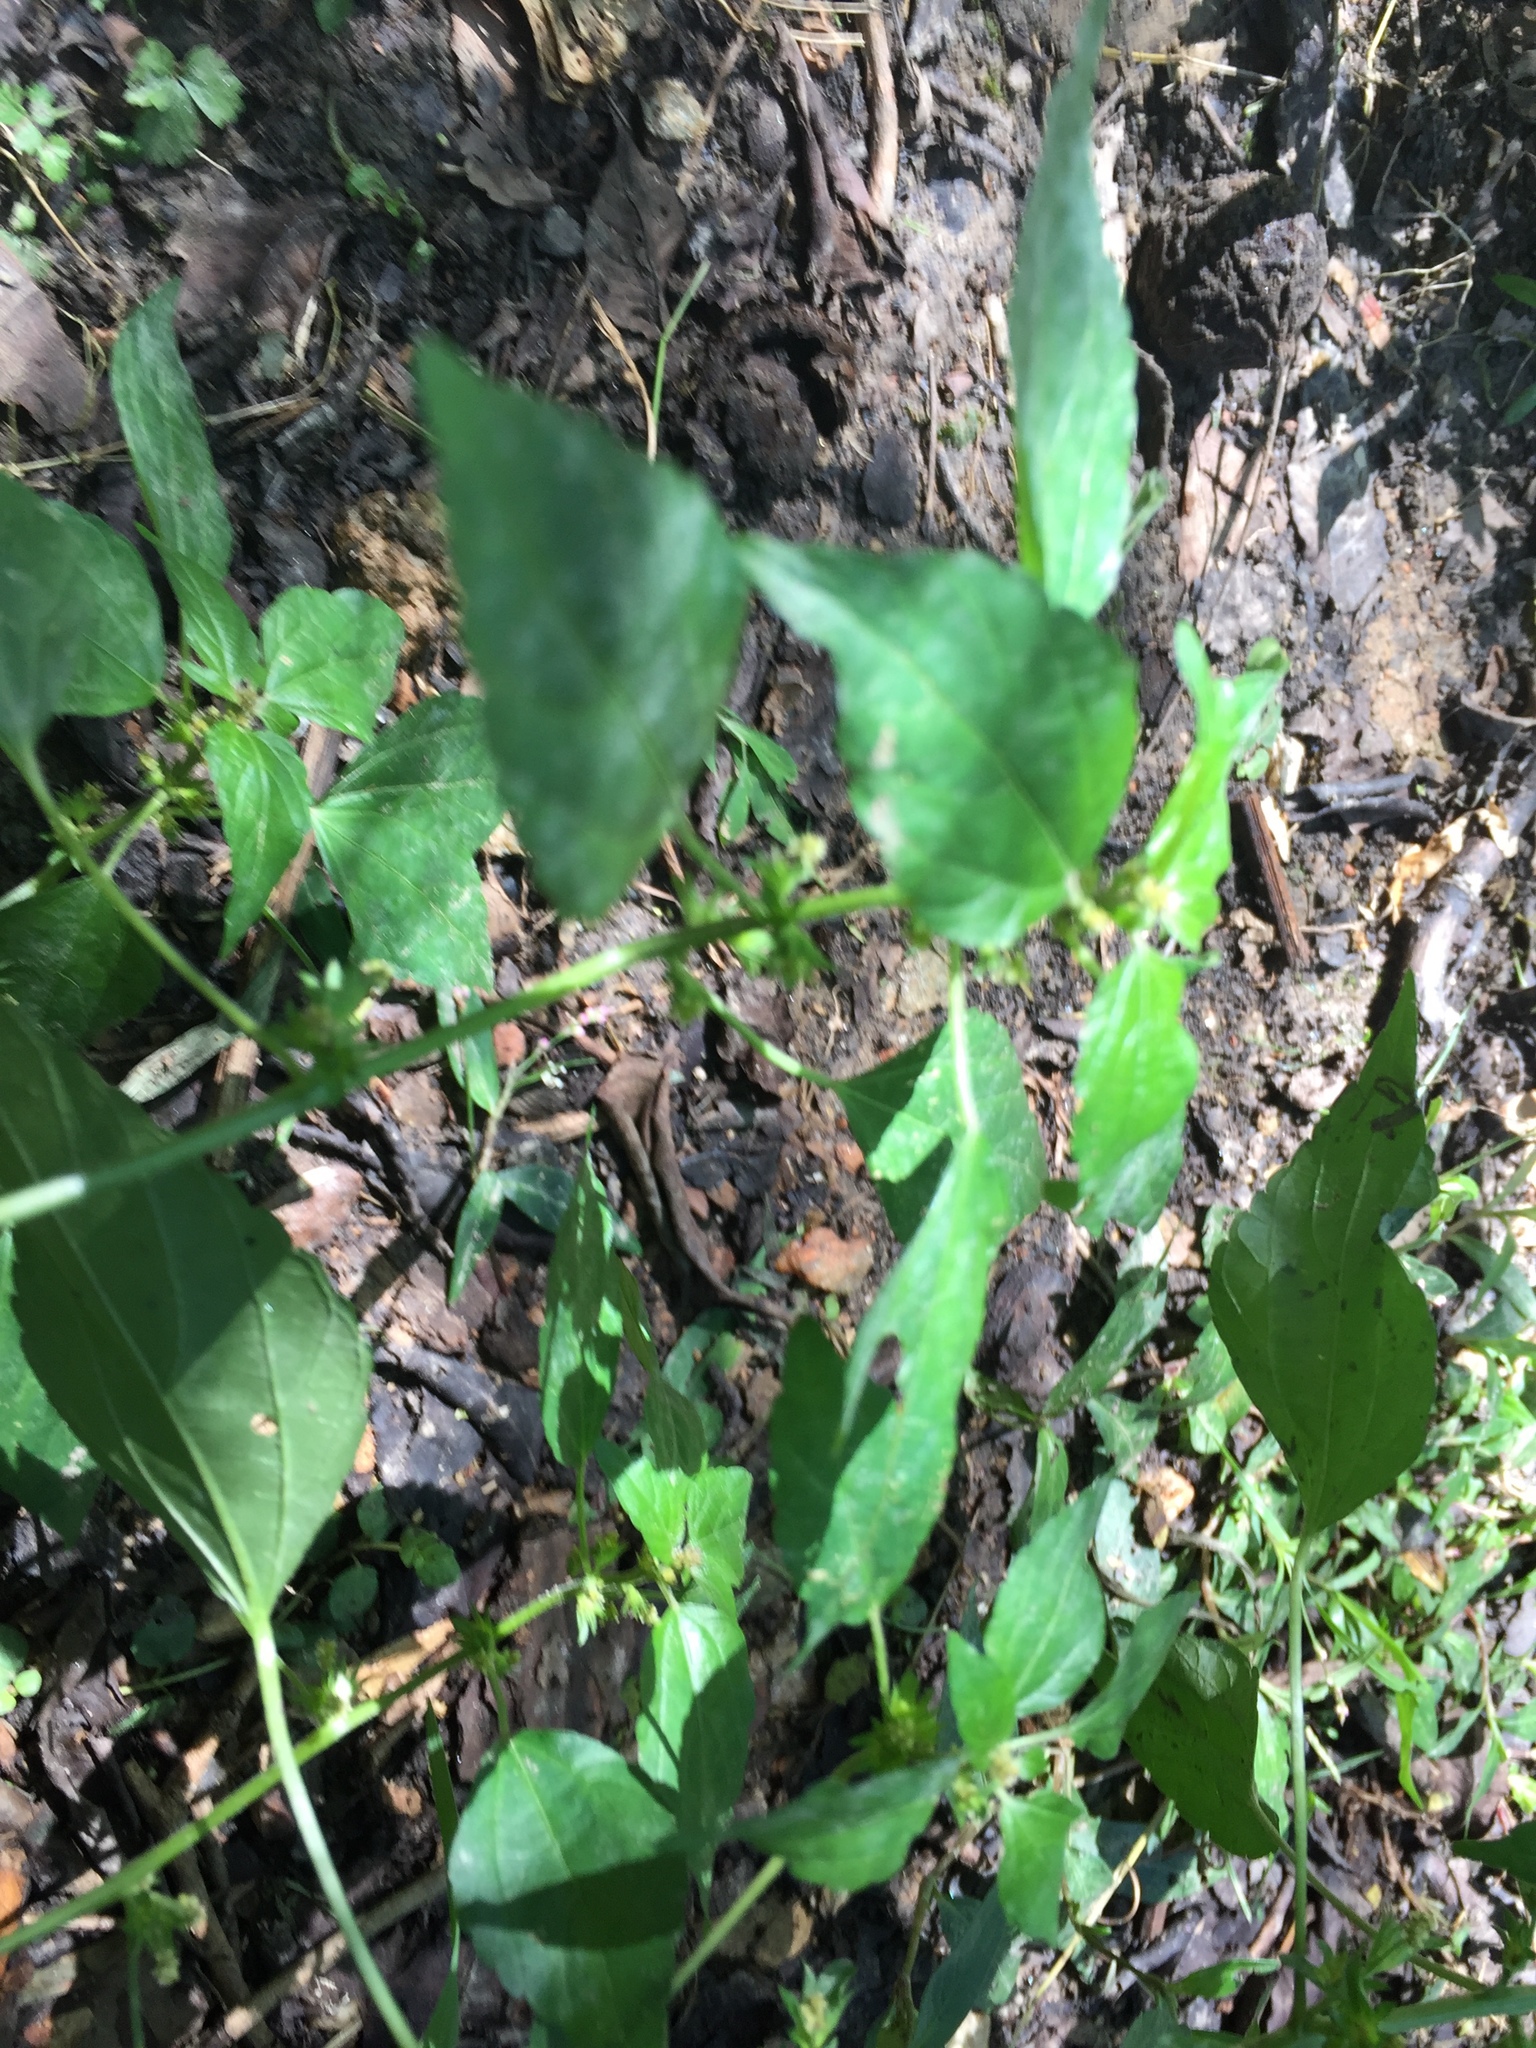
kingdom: Plantae
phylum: Tracheophyta
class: Magnoliopsida
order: Malpighiales
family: Euphorbiaceae
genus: Acalypha
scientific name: Acalypha rhomboidea
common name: Rhombic copperleaf
